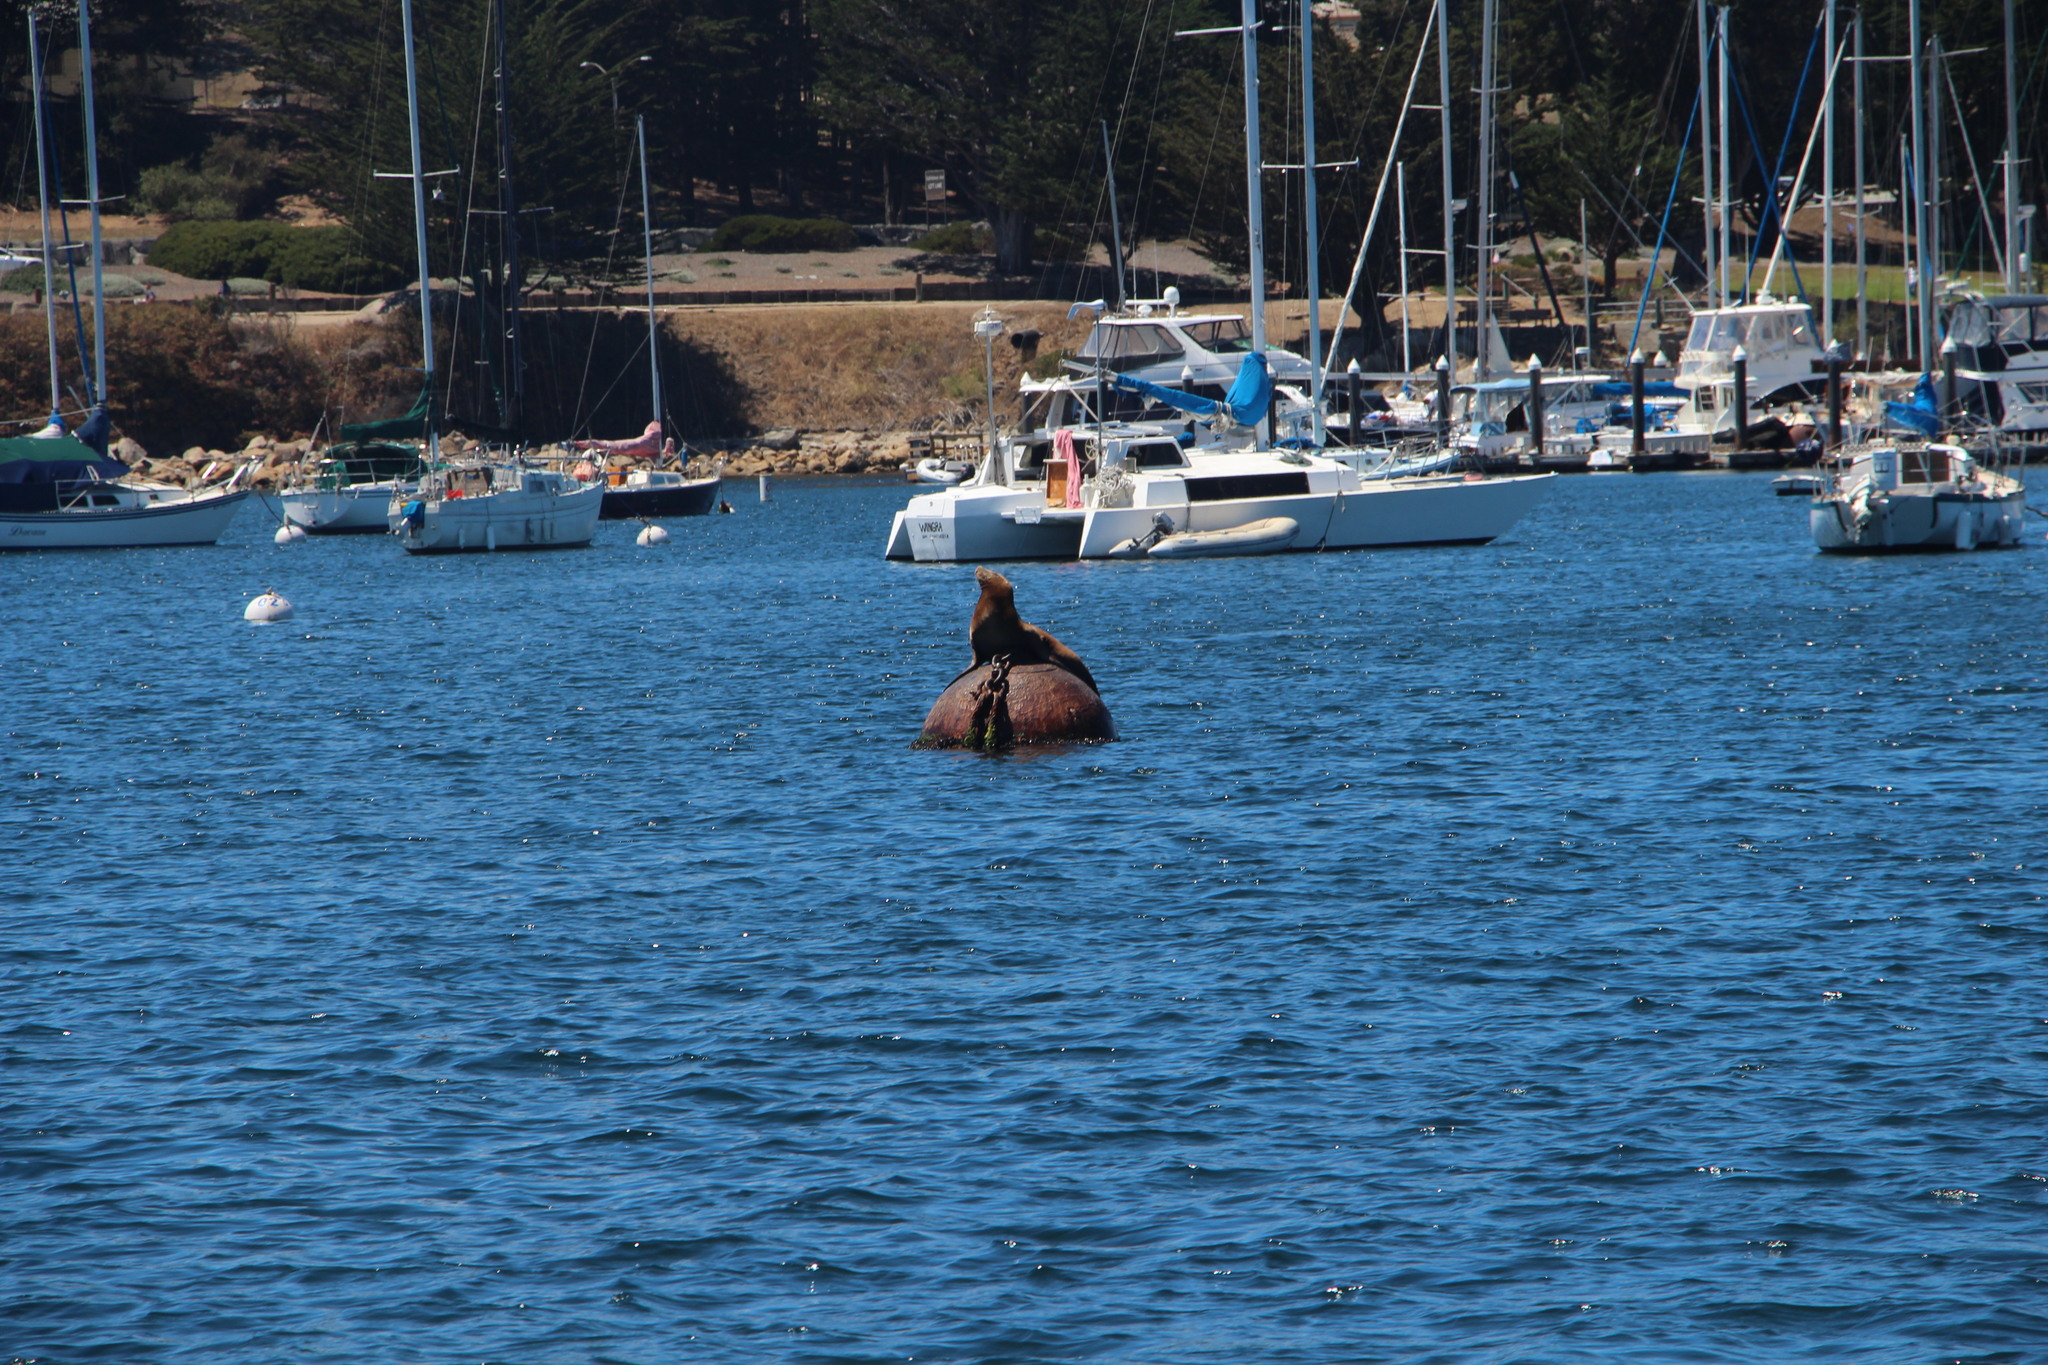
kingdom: Animalia
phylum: Chordata
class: Mammalia
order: Carnivora
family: Otariidae
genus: Zalophus
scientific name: Zalophus californianus
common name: California sea lion
